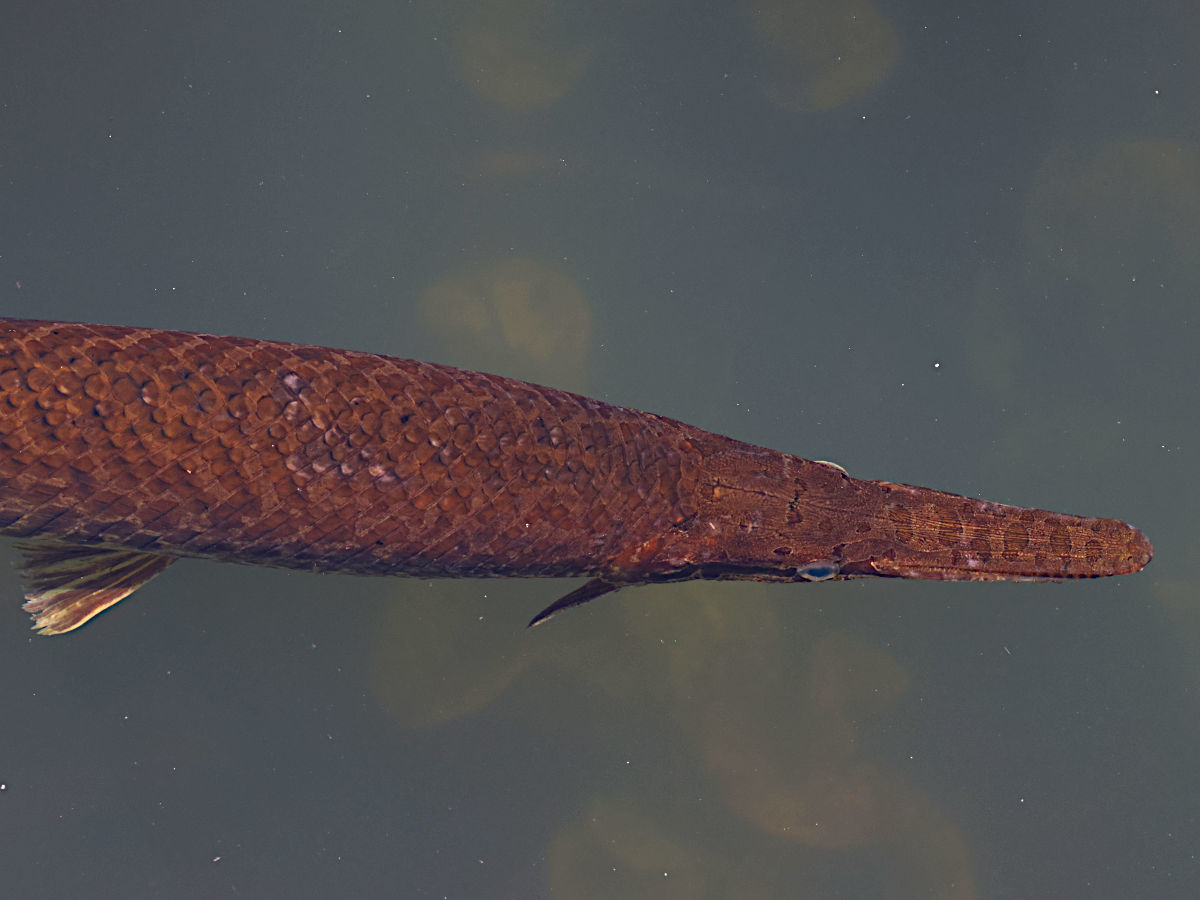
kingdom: Animalia
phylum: Chordata
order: Lepisosteiformes
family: Lepisosteidae
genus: Lepisosteus
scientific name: Lepisosteus platyrhincus
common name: Florida gar
